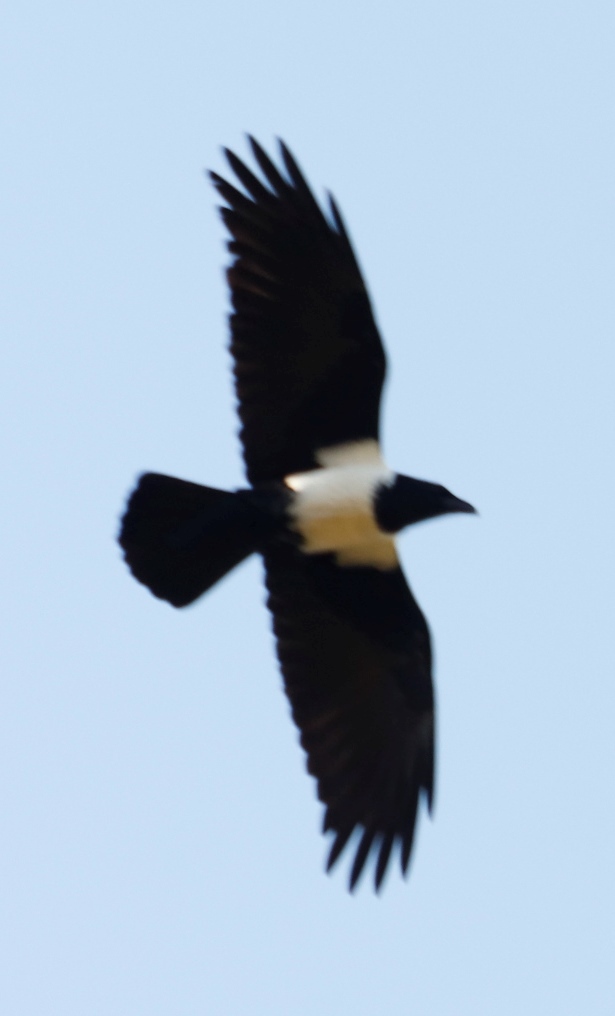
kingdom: Animalia
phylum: Chordata
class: Aves
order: Passeriformes
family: Corvidae
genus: Corvus
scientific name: Corvus albus
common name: Pied crow
